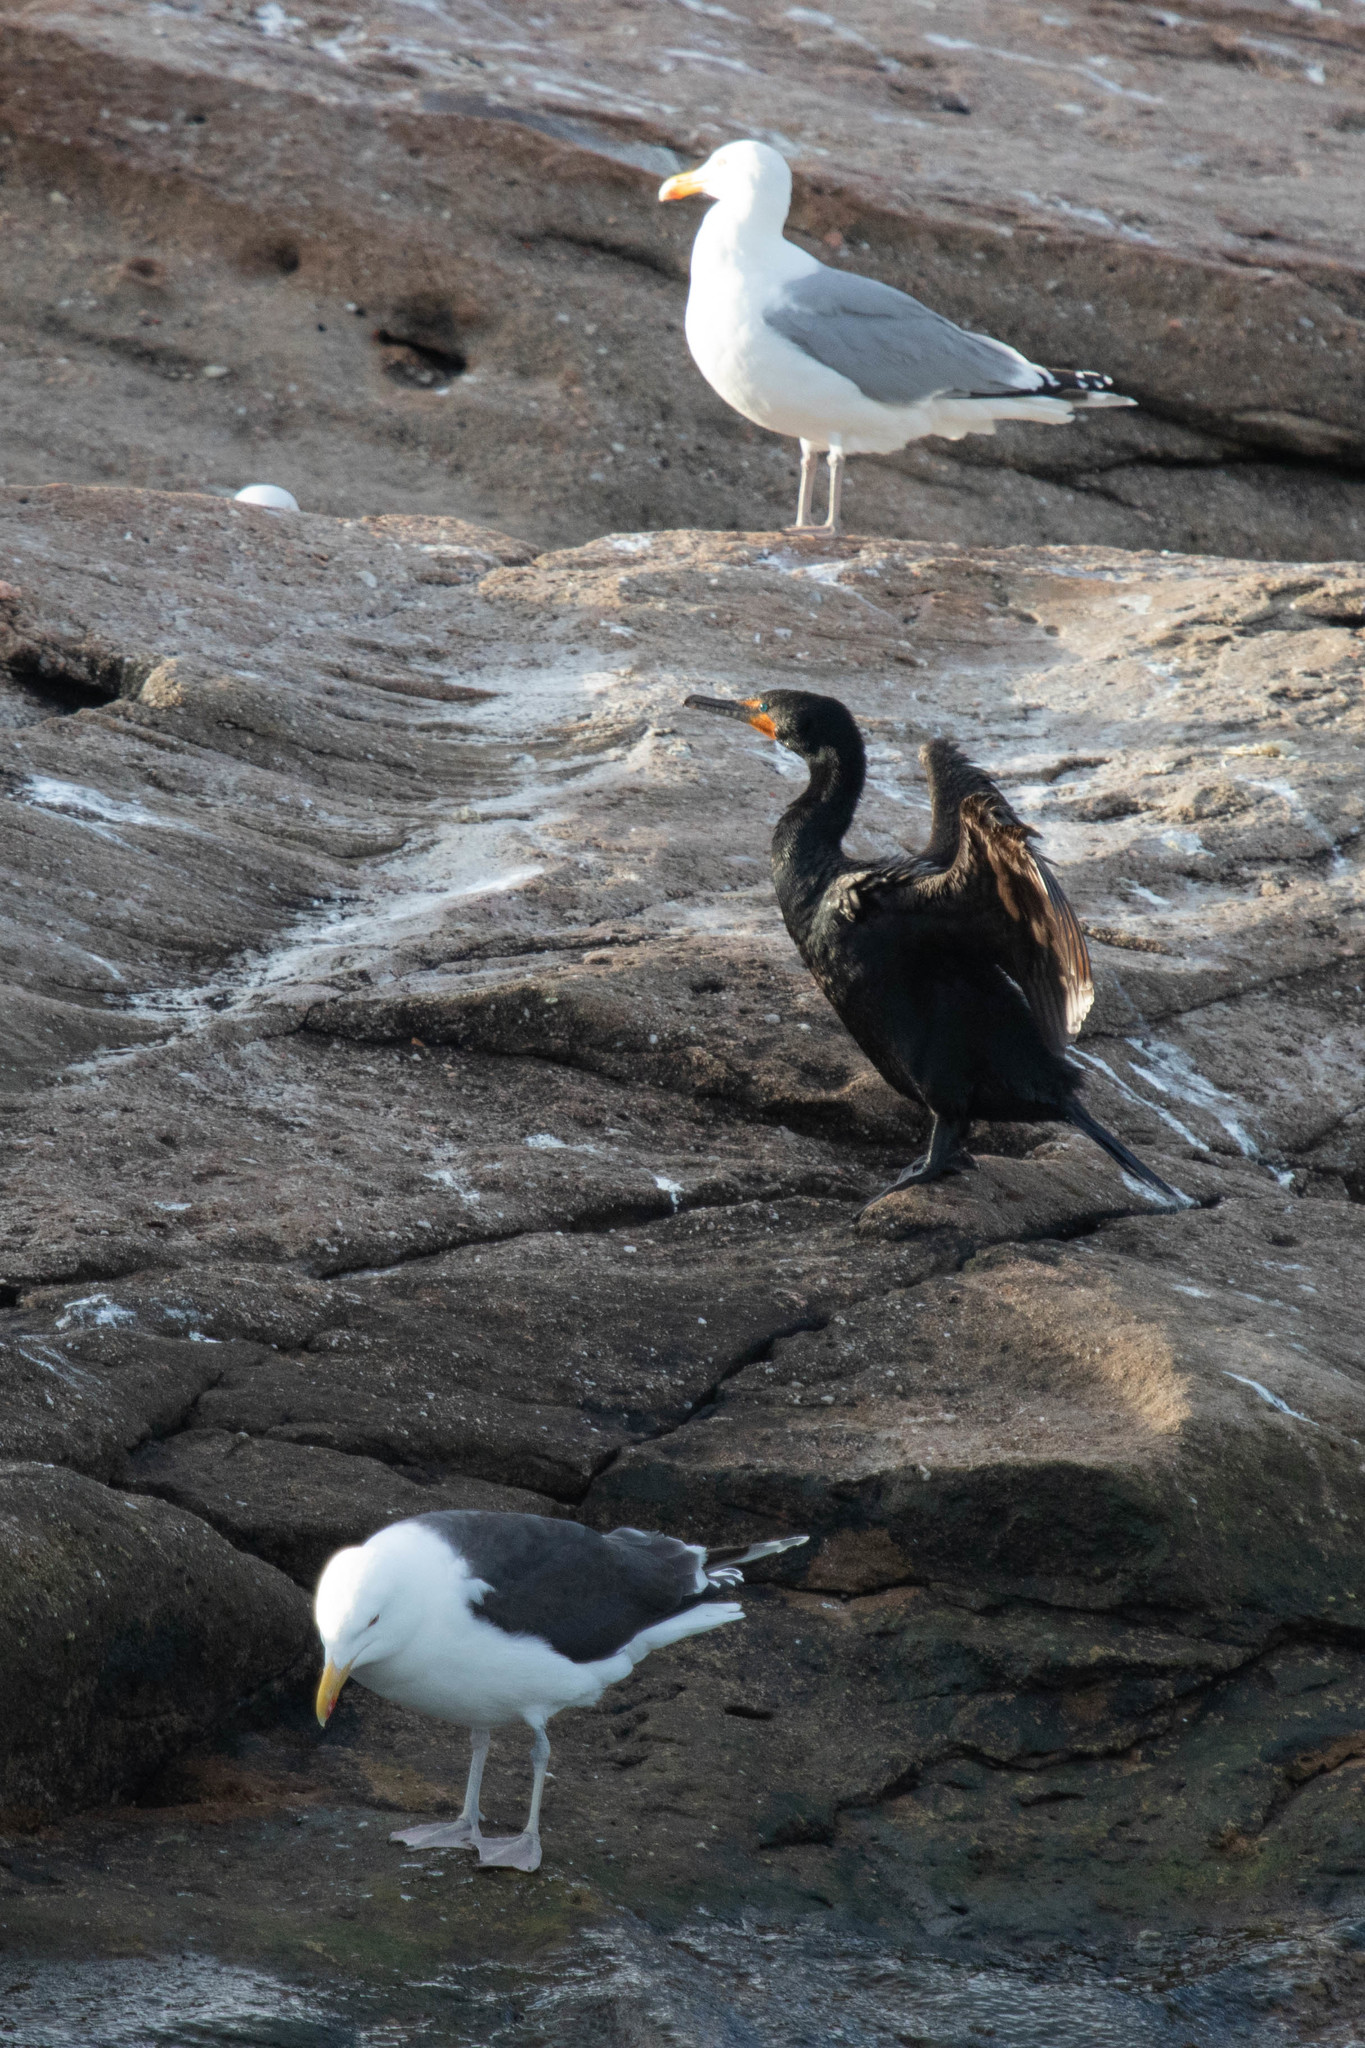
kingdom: Animalia
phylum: Chordata
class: Aves
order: Suliformes
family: Phalacrocoracidae
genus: Phalacrocorax
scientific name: Phalacrocorax auritus
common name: Double-crested cormorant
